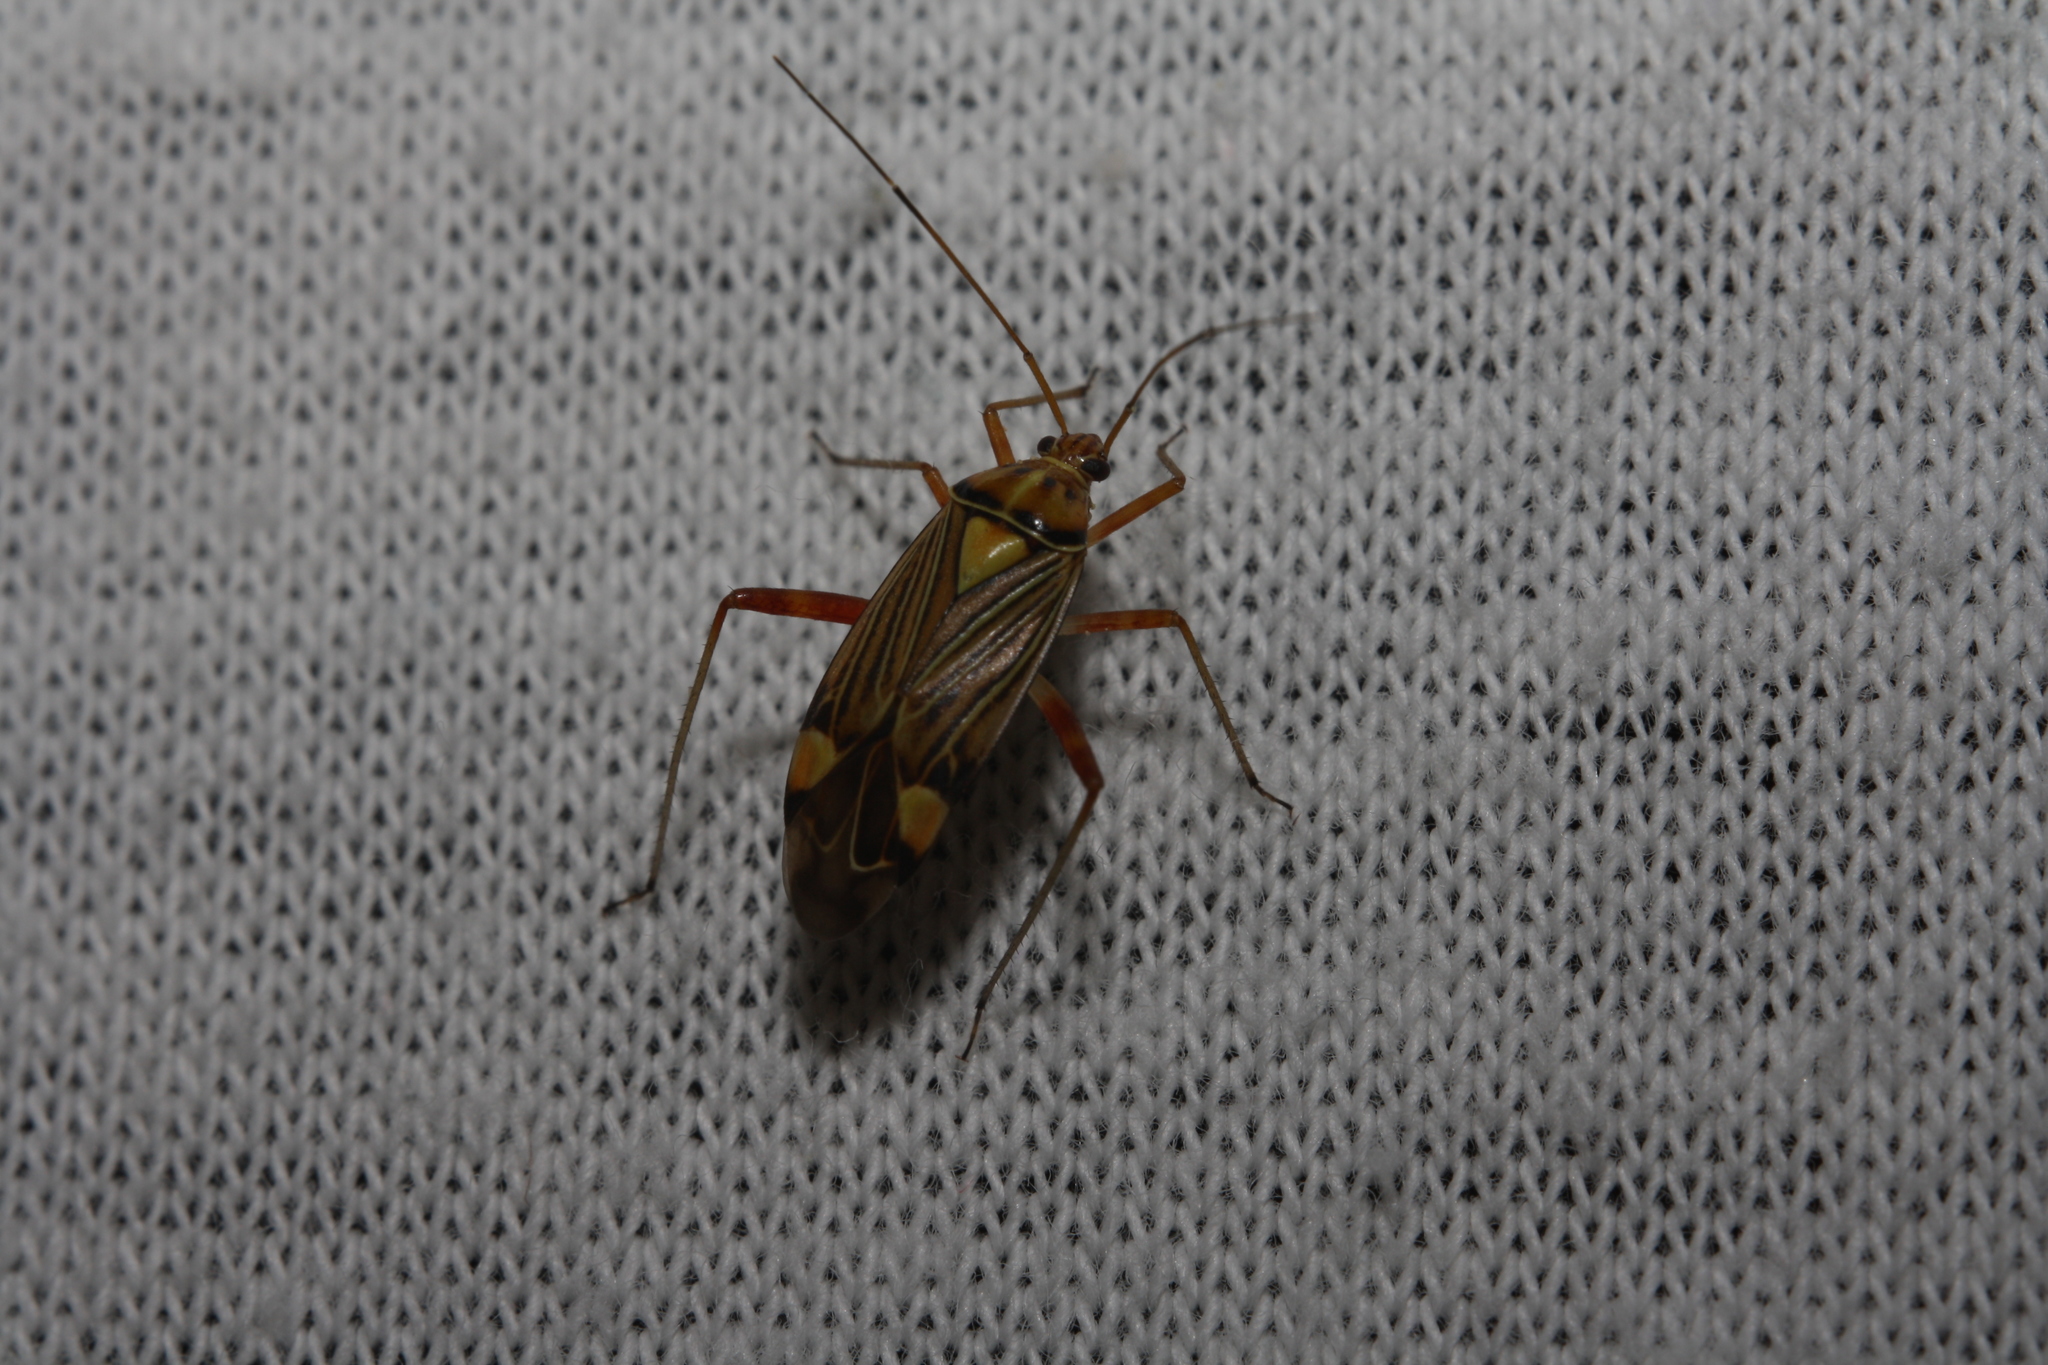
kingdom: Animalia
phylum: Arthropoda
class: Insecta
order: Hemiptera
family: Miridae
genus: Rhabdomiris
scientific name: Rhabdomiris striatellus
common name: Plant bug
